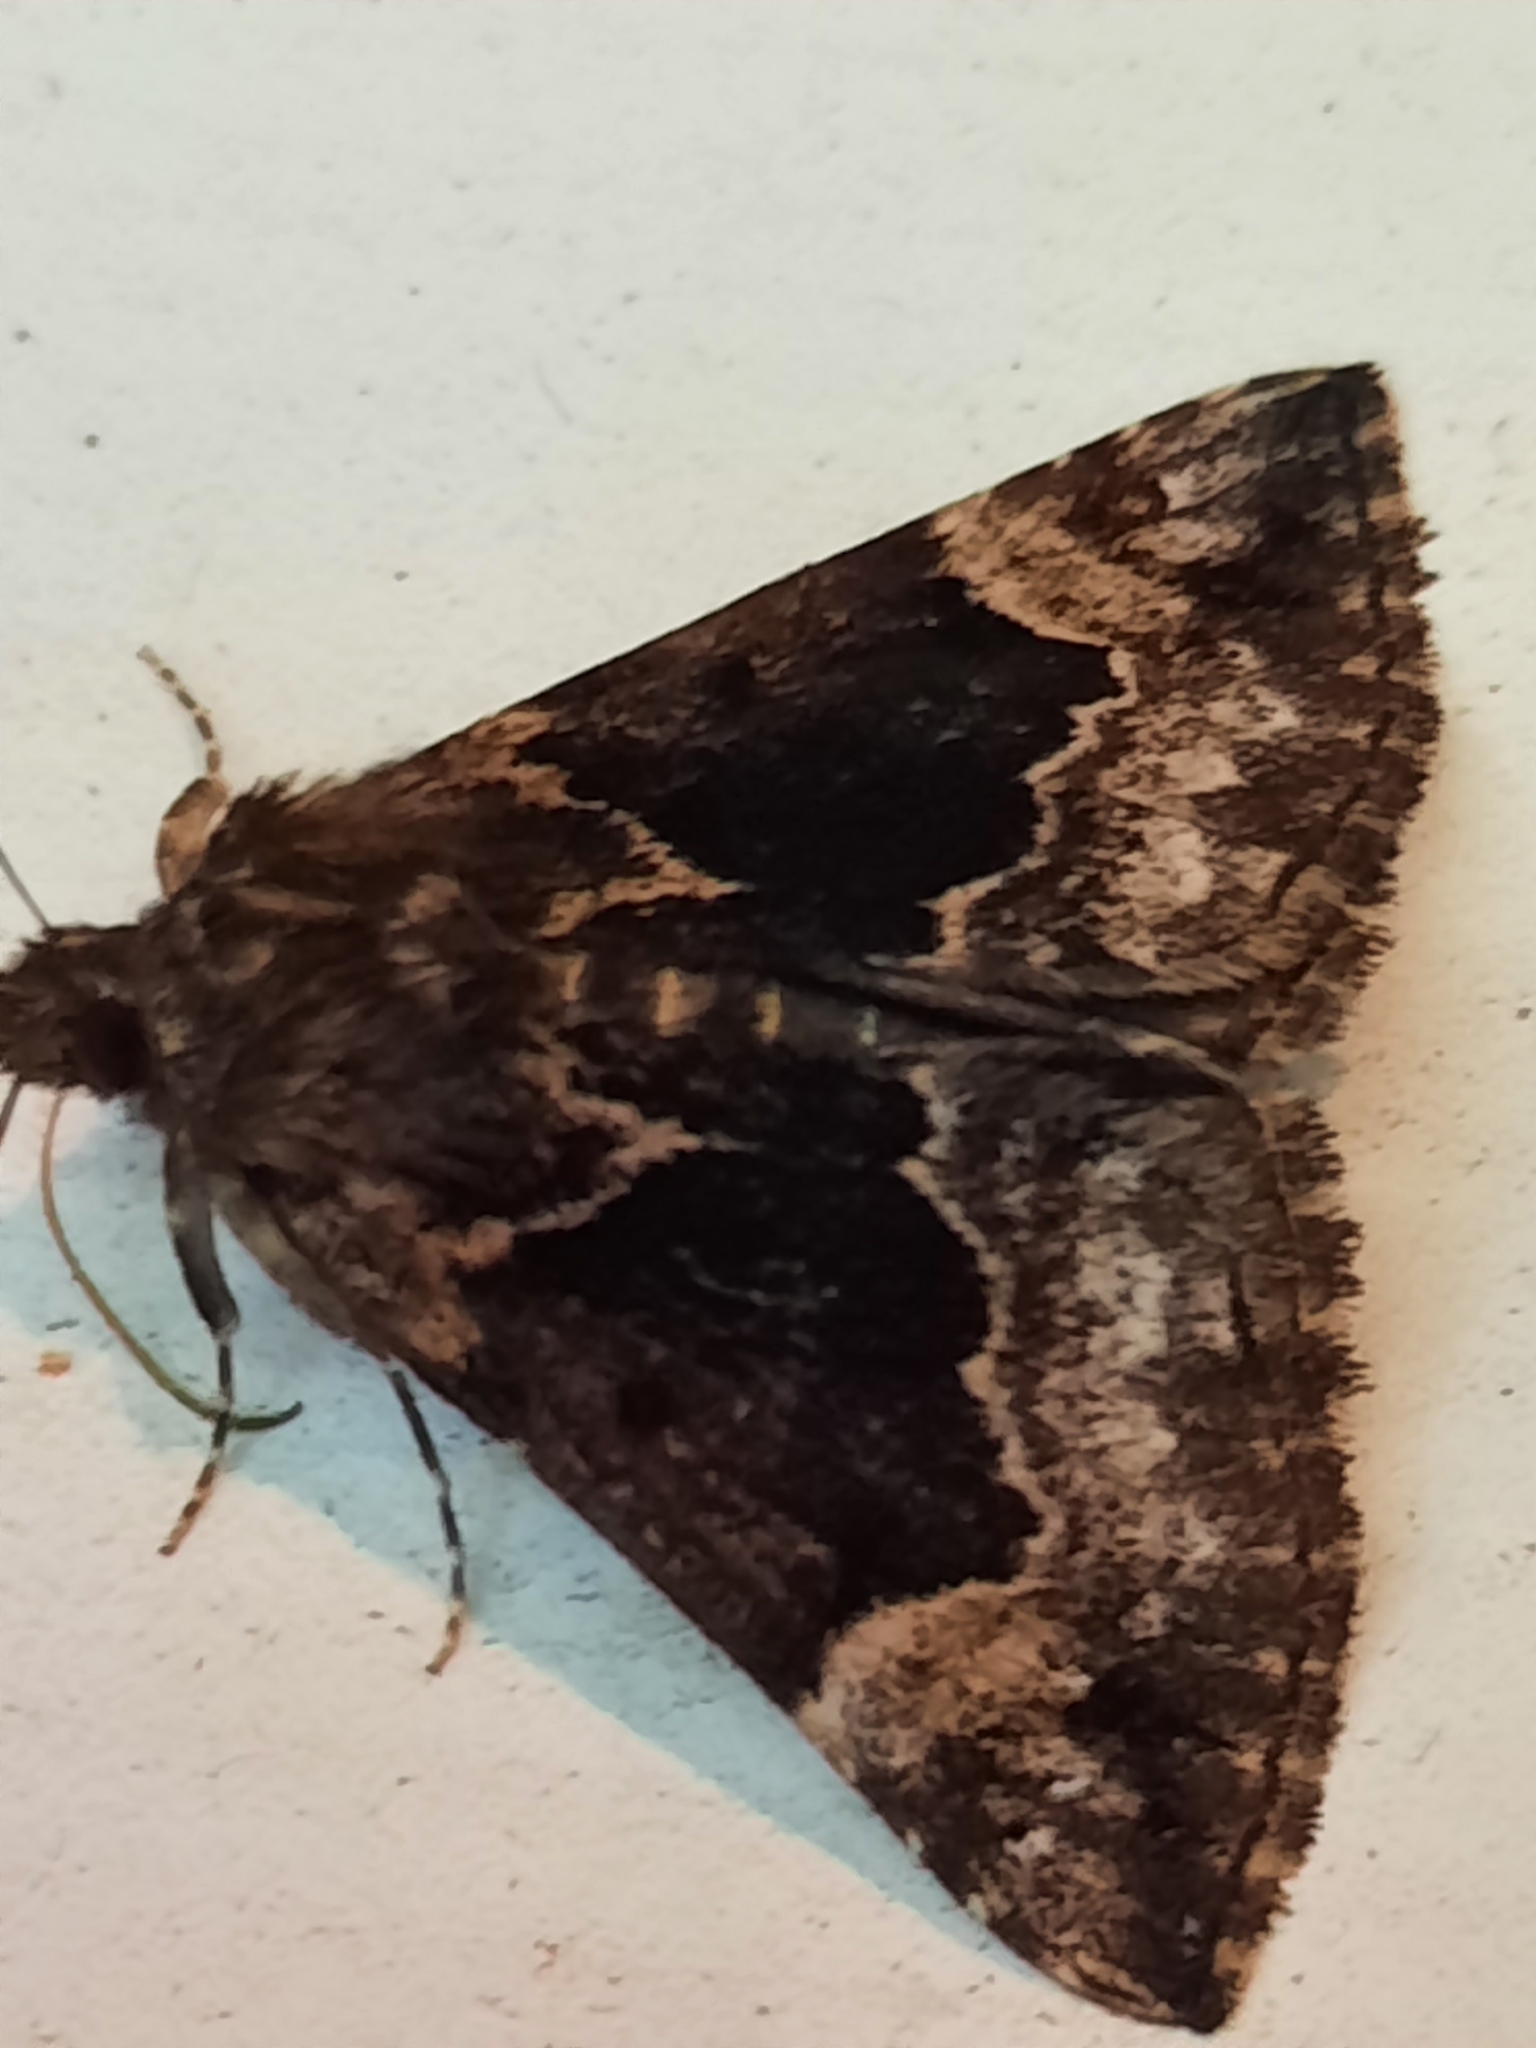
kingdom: Animalia
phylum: Arthropoda
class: Insecta
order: Lepidoptera
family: Erebidae
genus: Hypena
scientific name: Hypena palparia
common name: Mottled bomolocha moth
